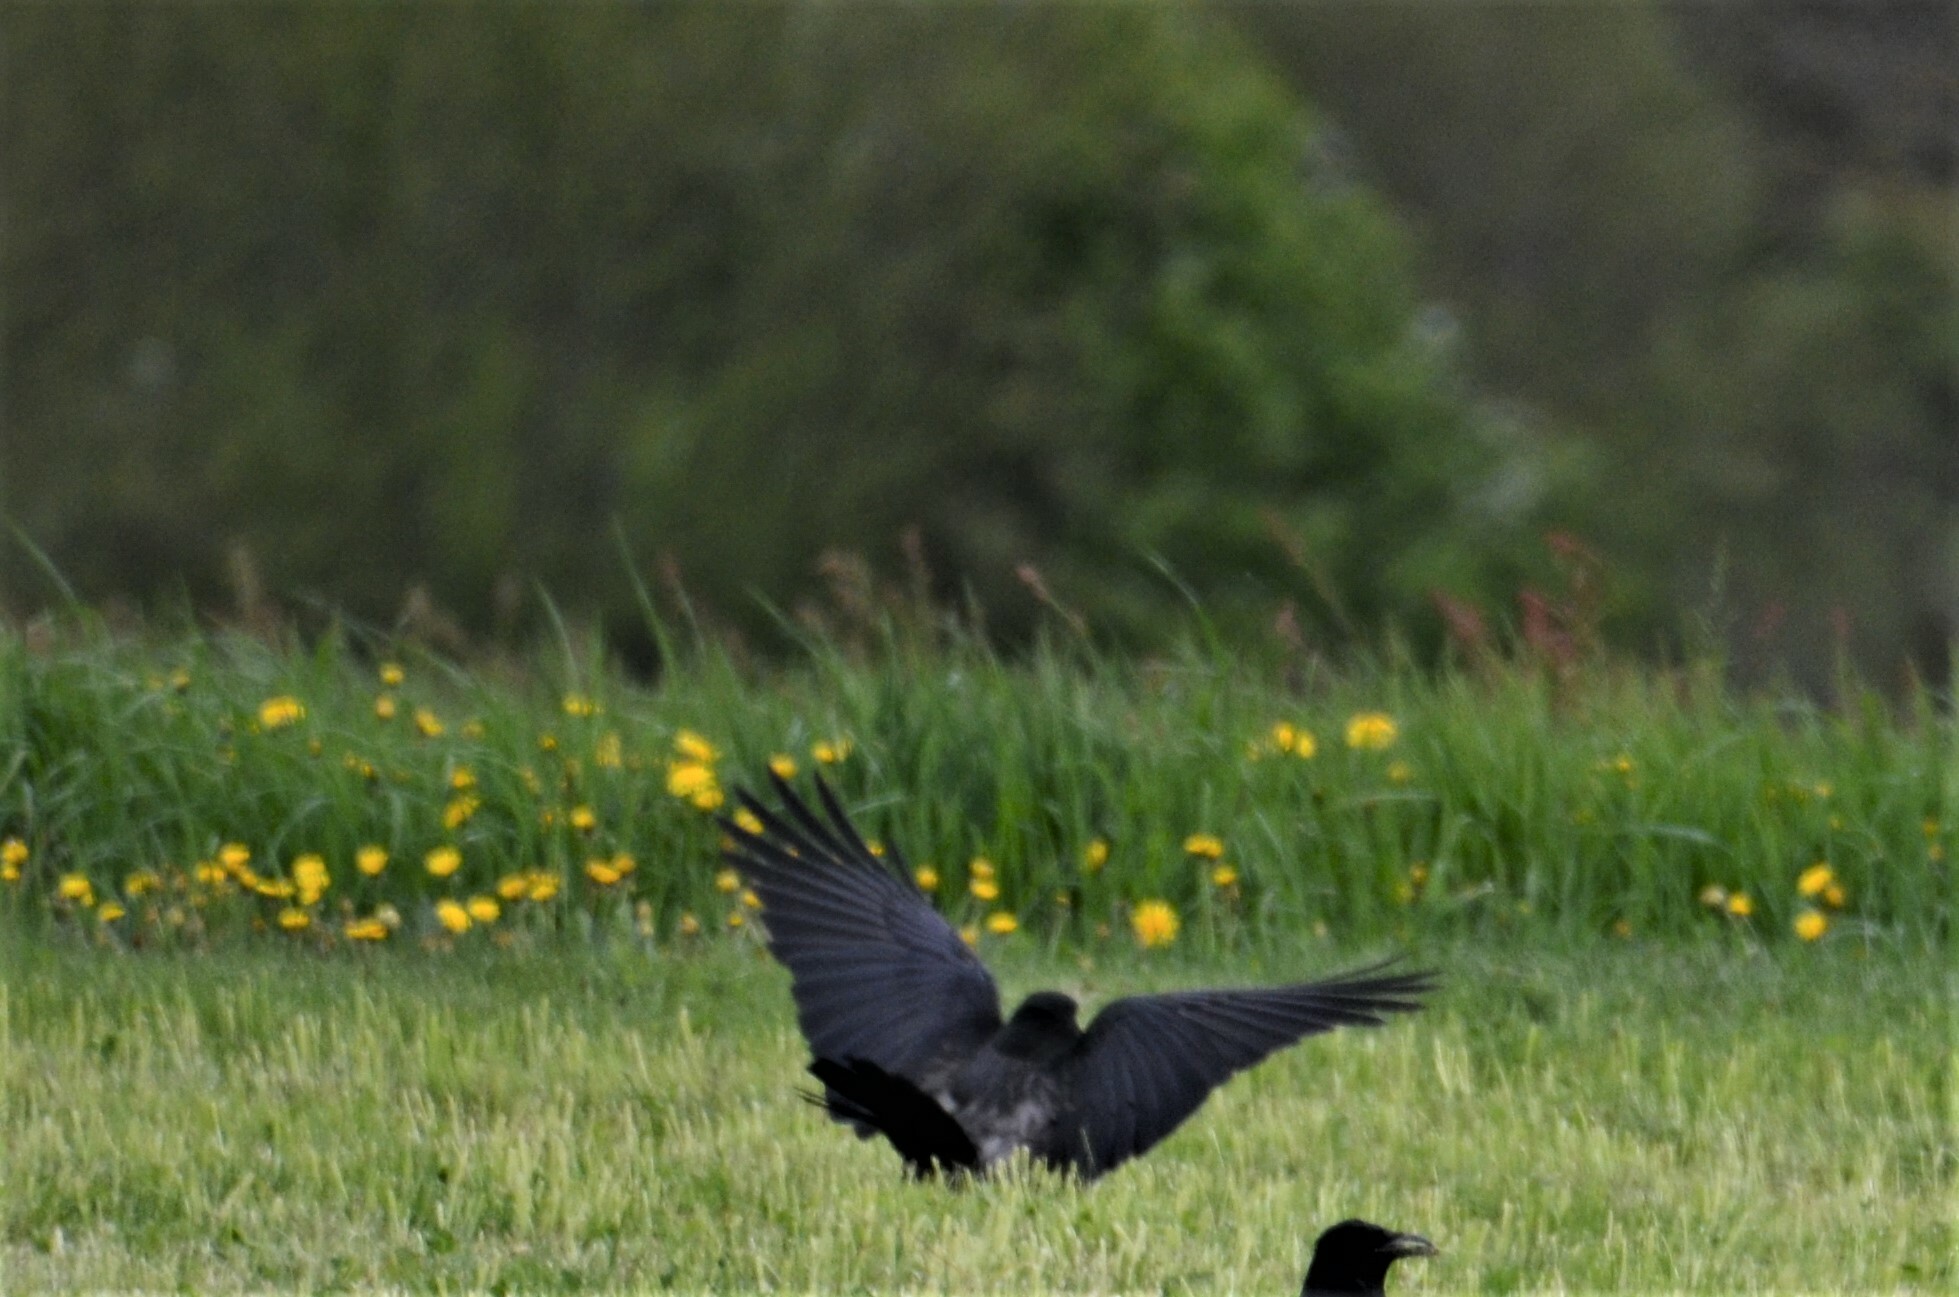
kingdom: Animalia
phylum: Chordata
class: Aves
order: Passeriformes
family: Corvidae
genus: Corvus
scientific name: Corvus
